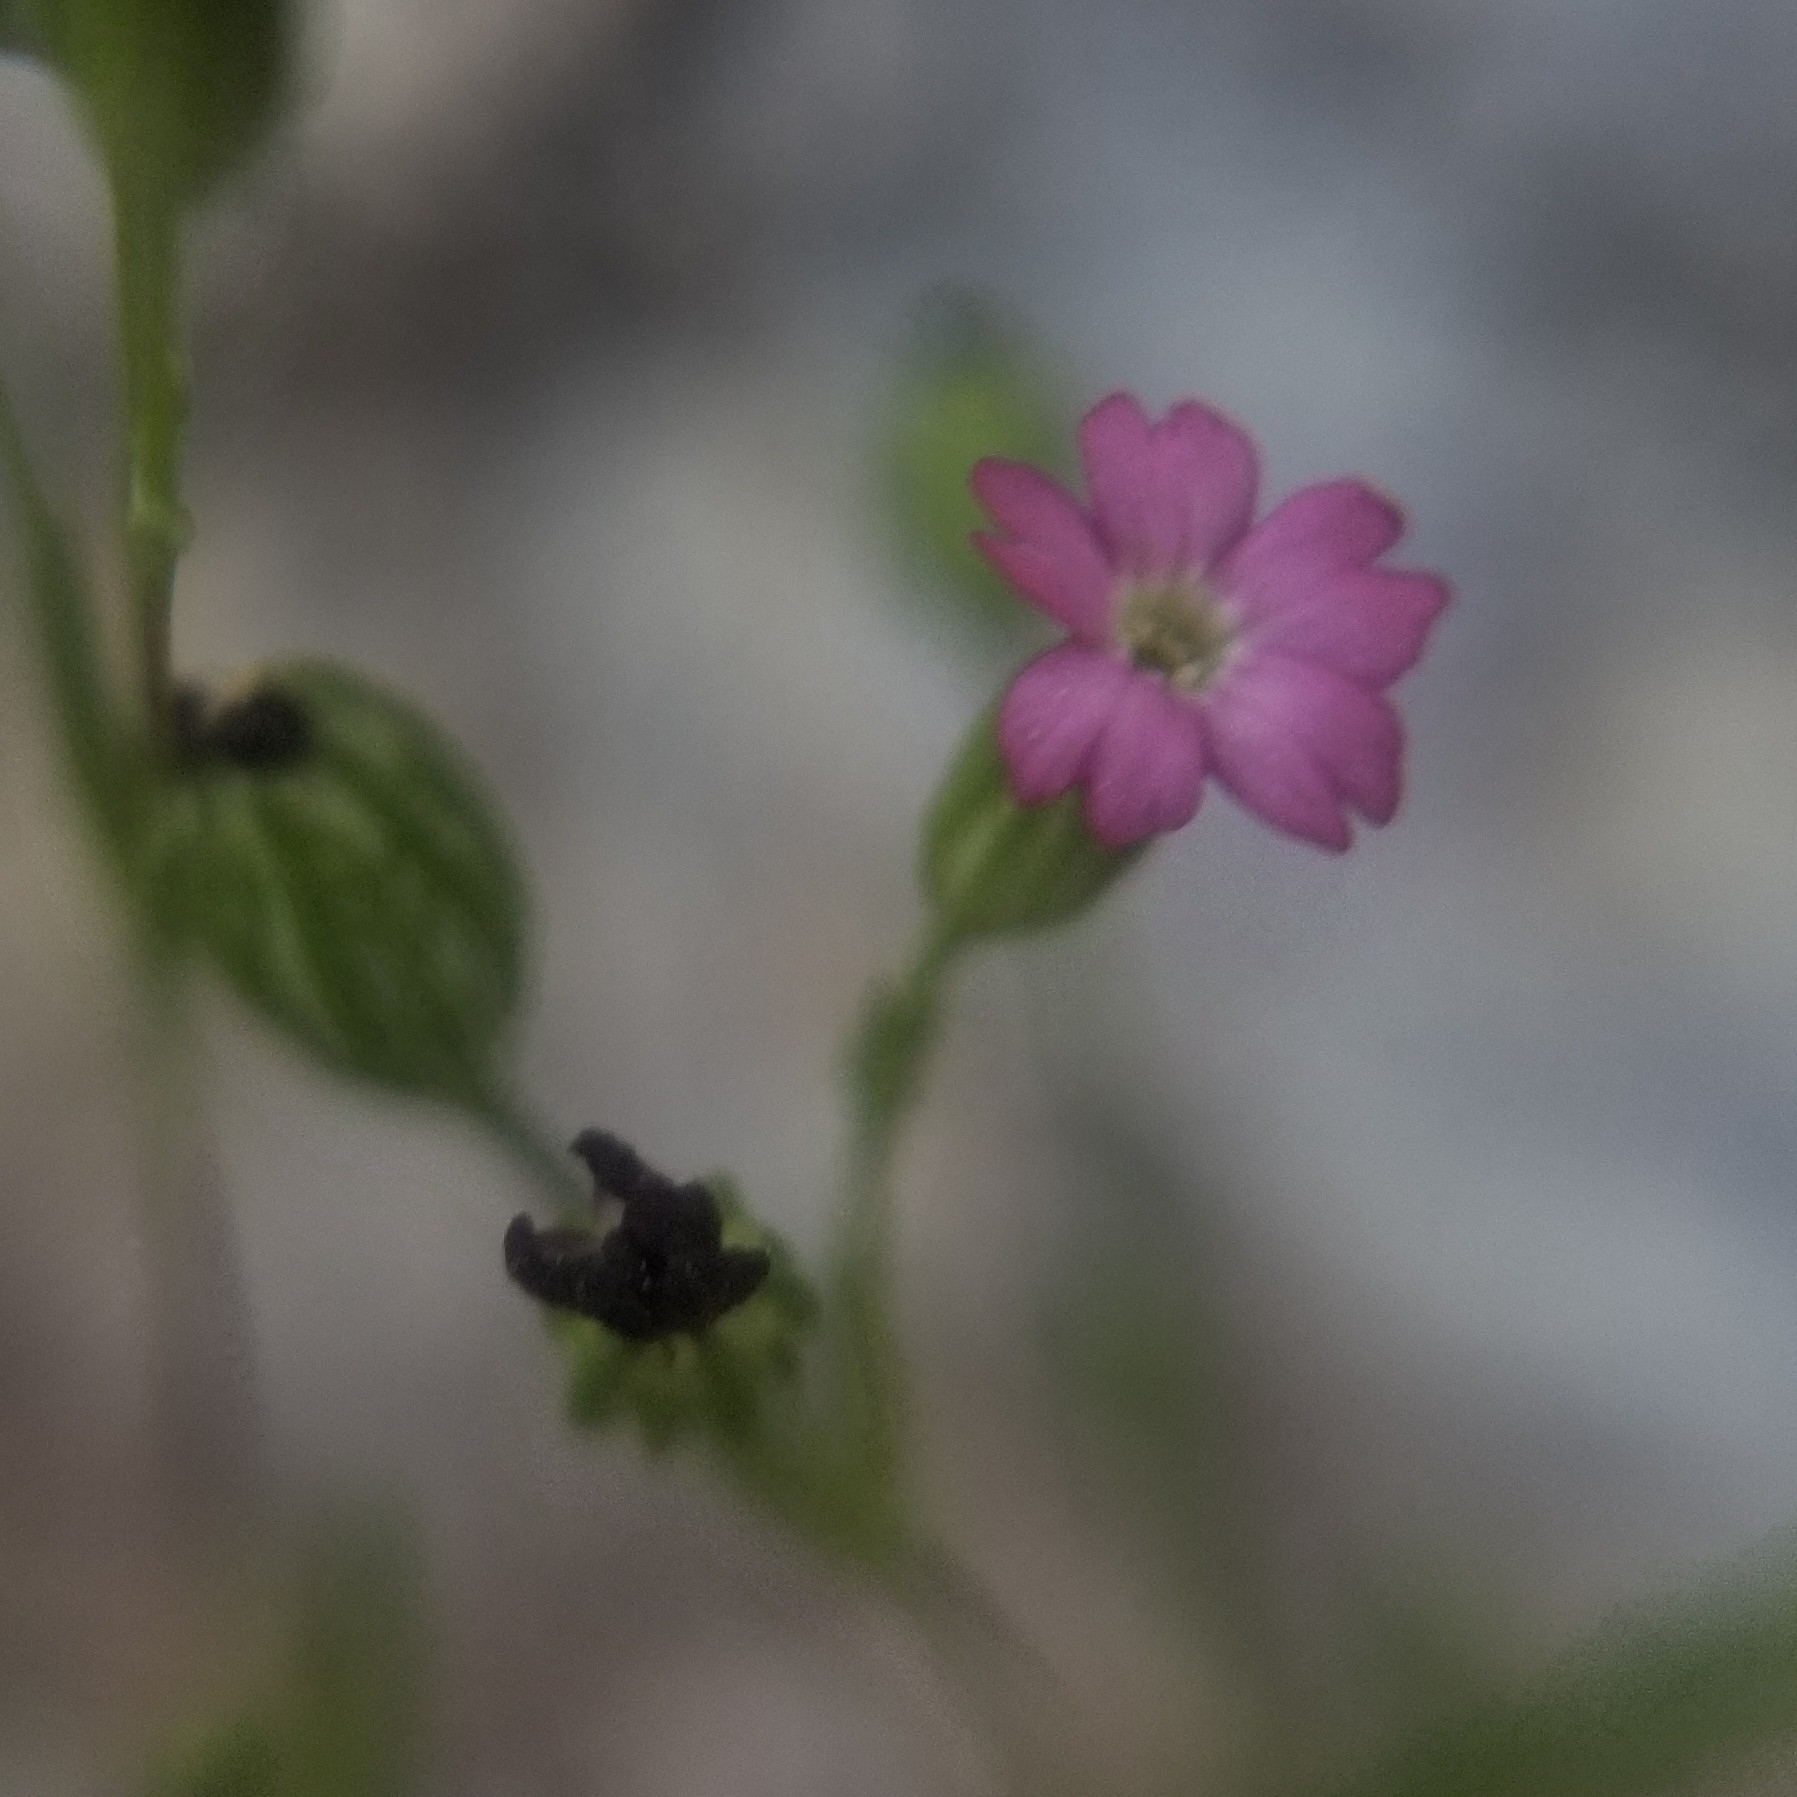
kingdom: Plantae
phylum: Tracheophyta
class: Magnoliopsida
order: Ericales
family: Polemoniaceae
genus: Phlox
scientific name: Phlox gracilis
